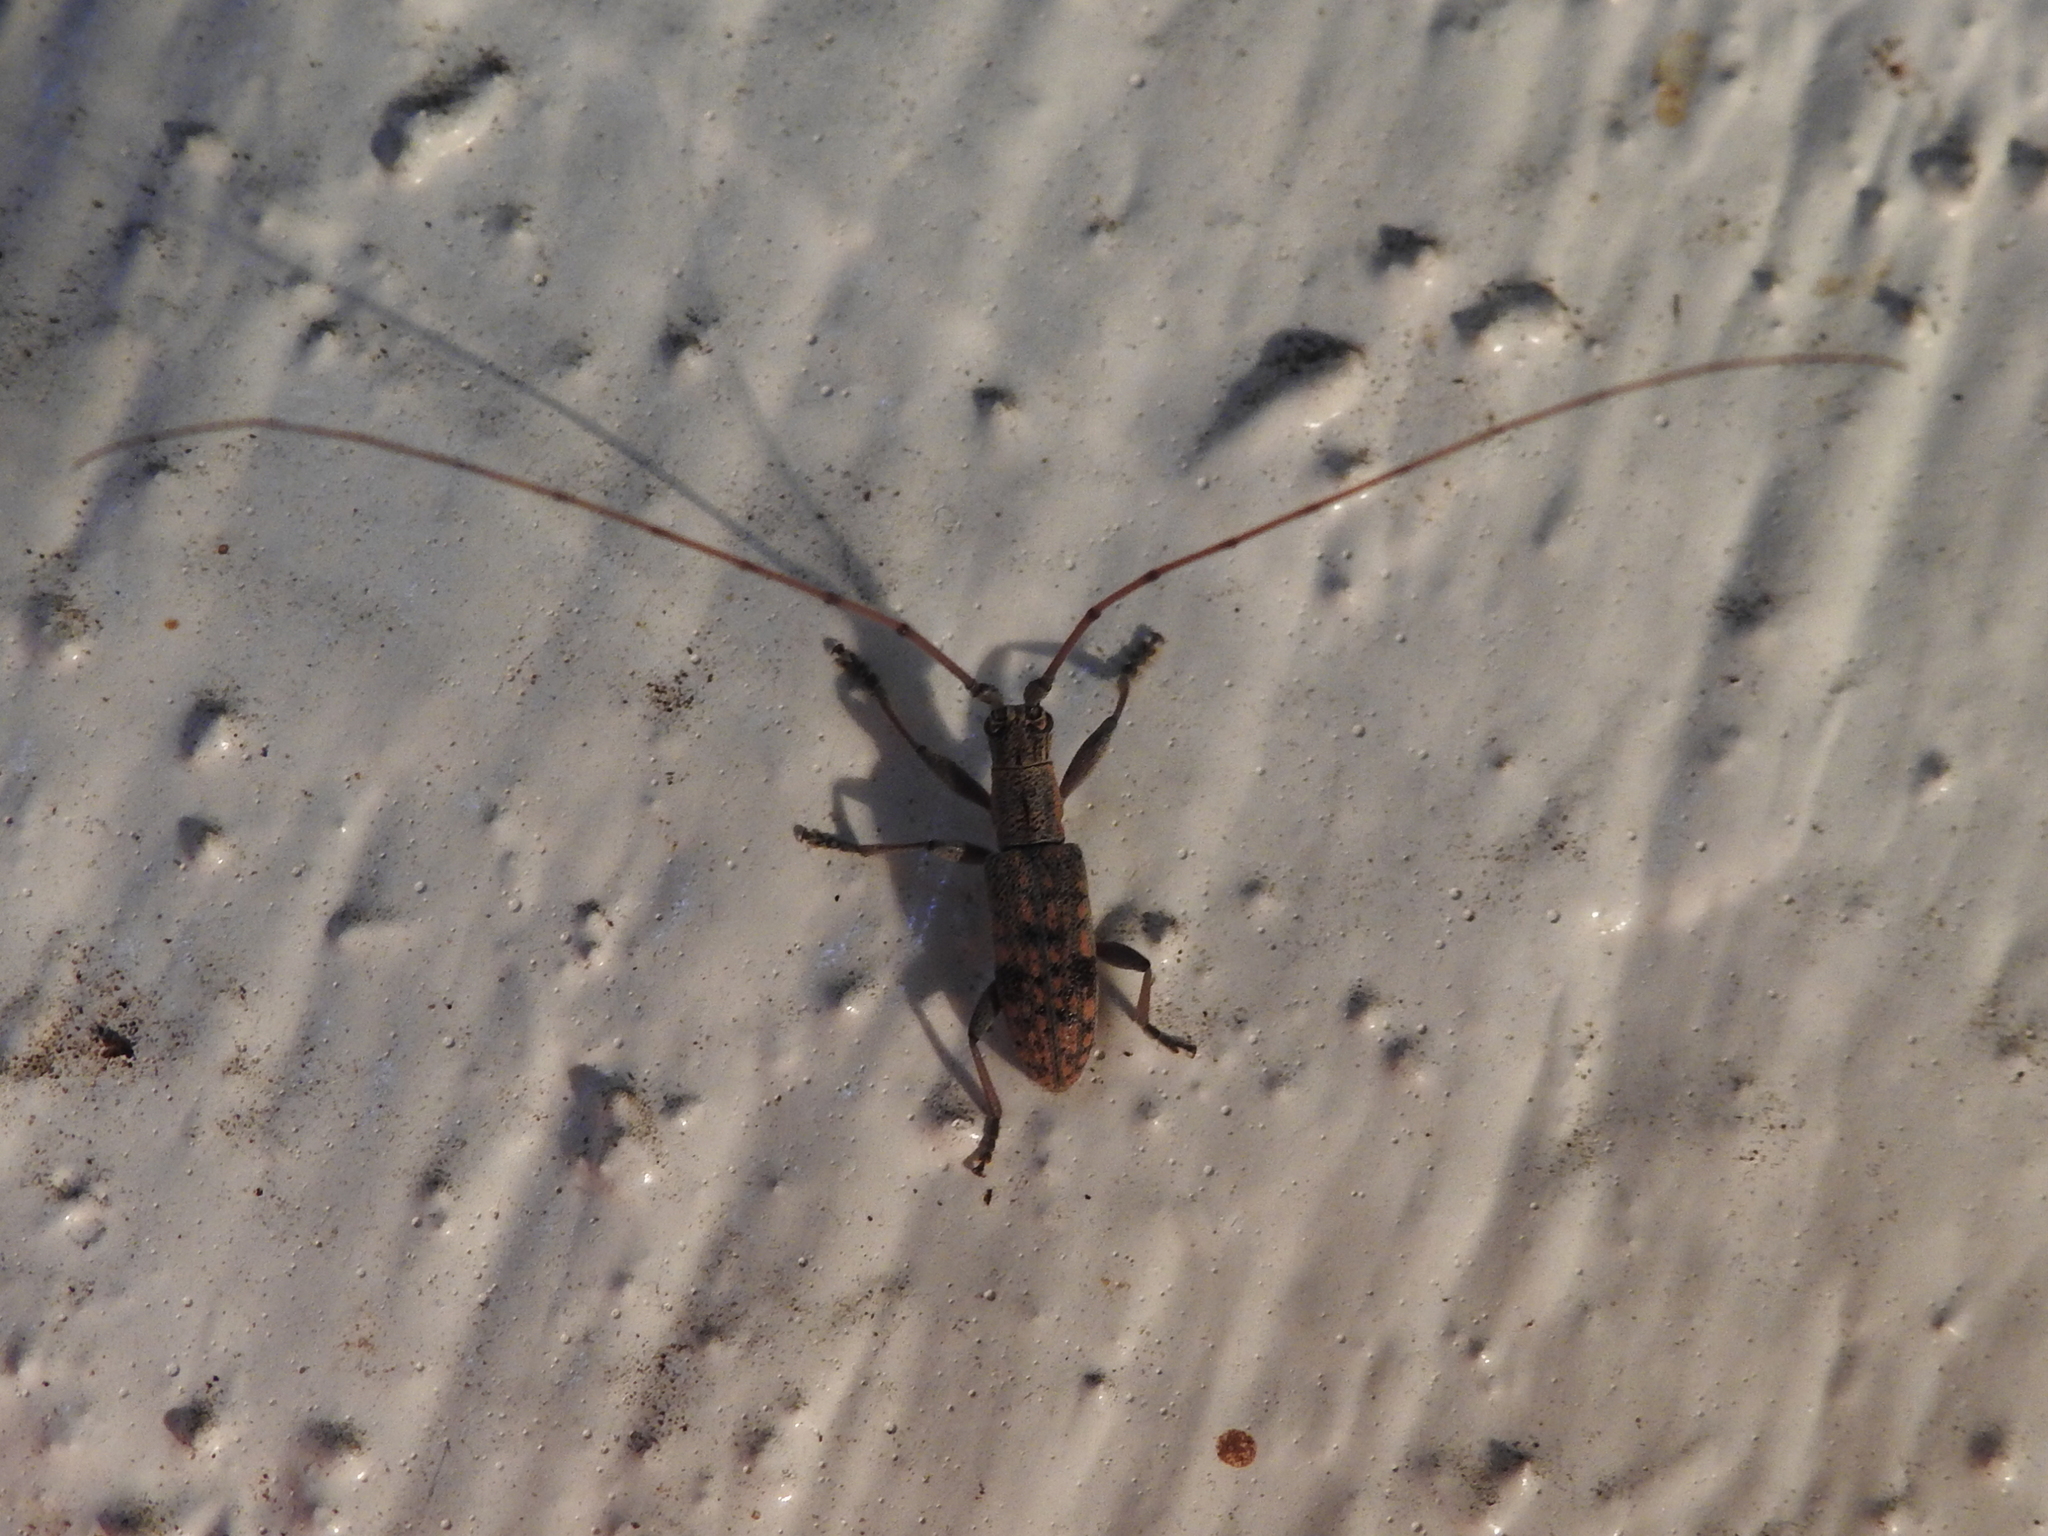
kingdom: Animalia
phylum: Arthropoda
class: Insecta
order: Coleoptera
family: Cerambycidae
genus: Dorcaschema
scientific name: Dorcaschema alternatum
